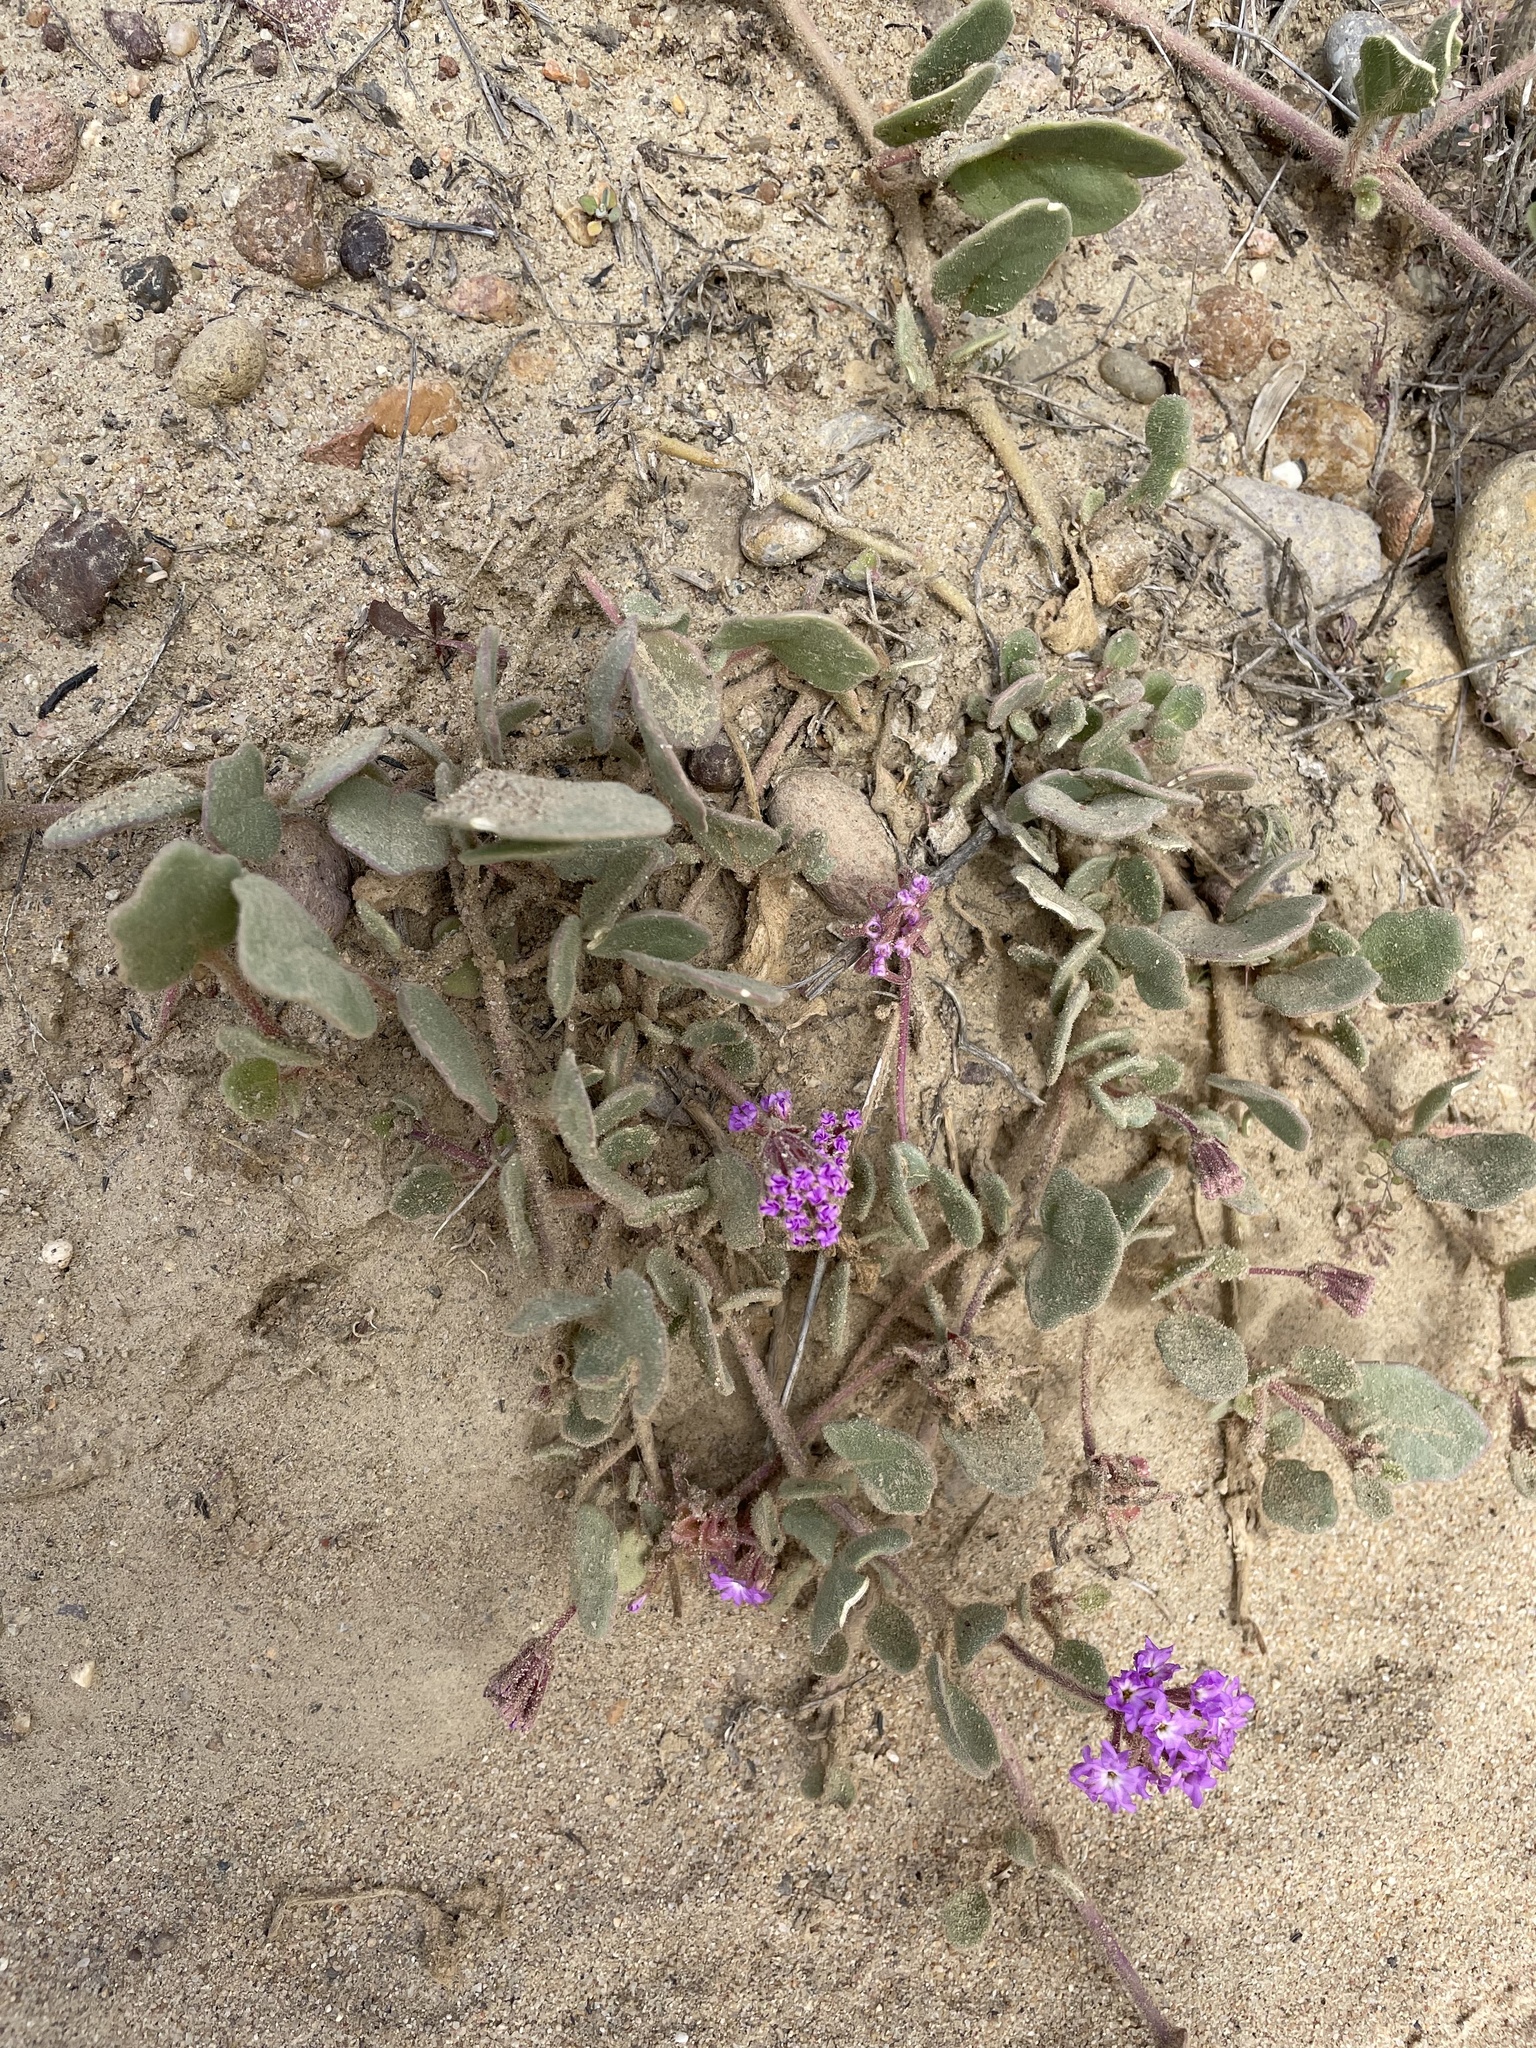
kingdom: Plantae
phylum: Tracheophyta
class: Magnoliopsida
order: Caryophyllales
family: Nyctaginaceae
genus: Abronia
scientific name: Abronia umbellata
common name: Sand-verbena
